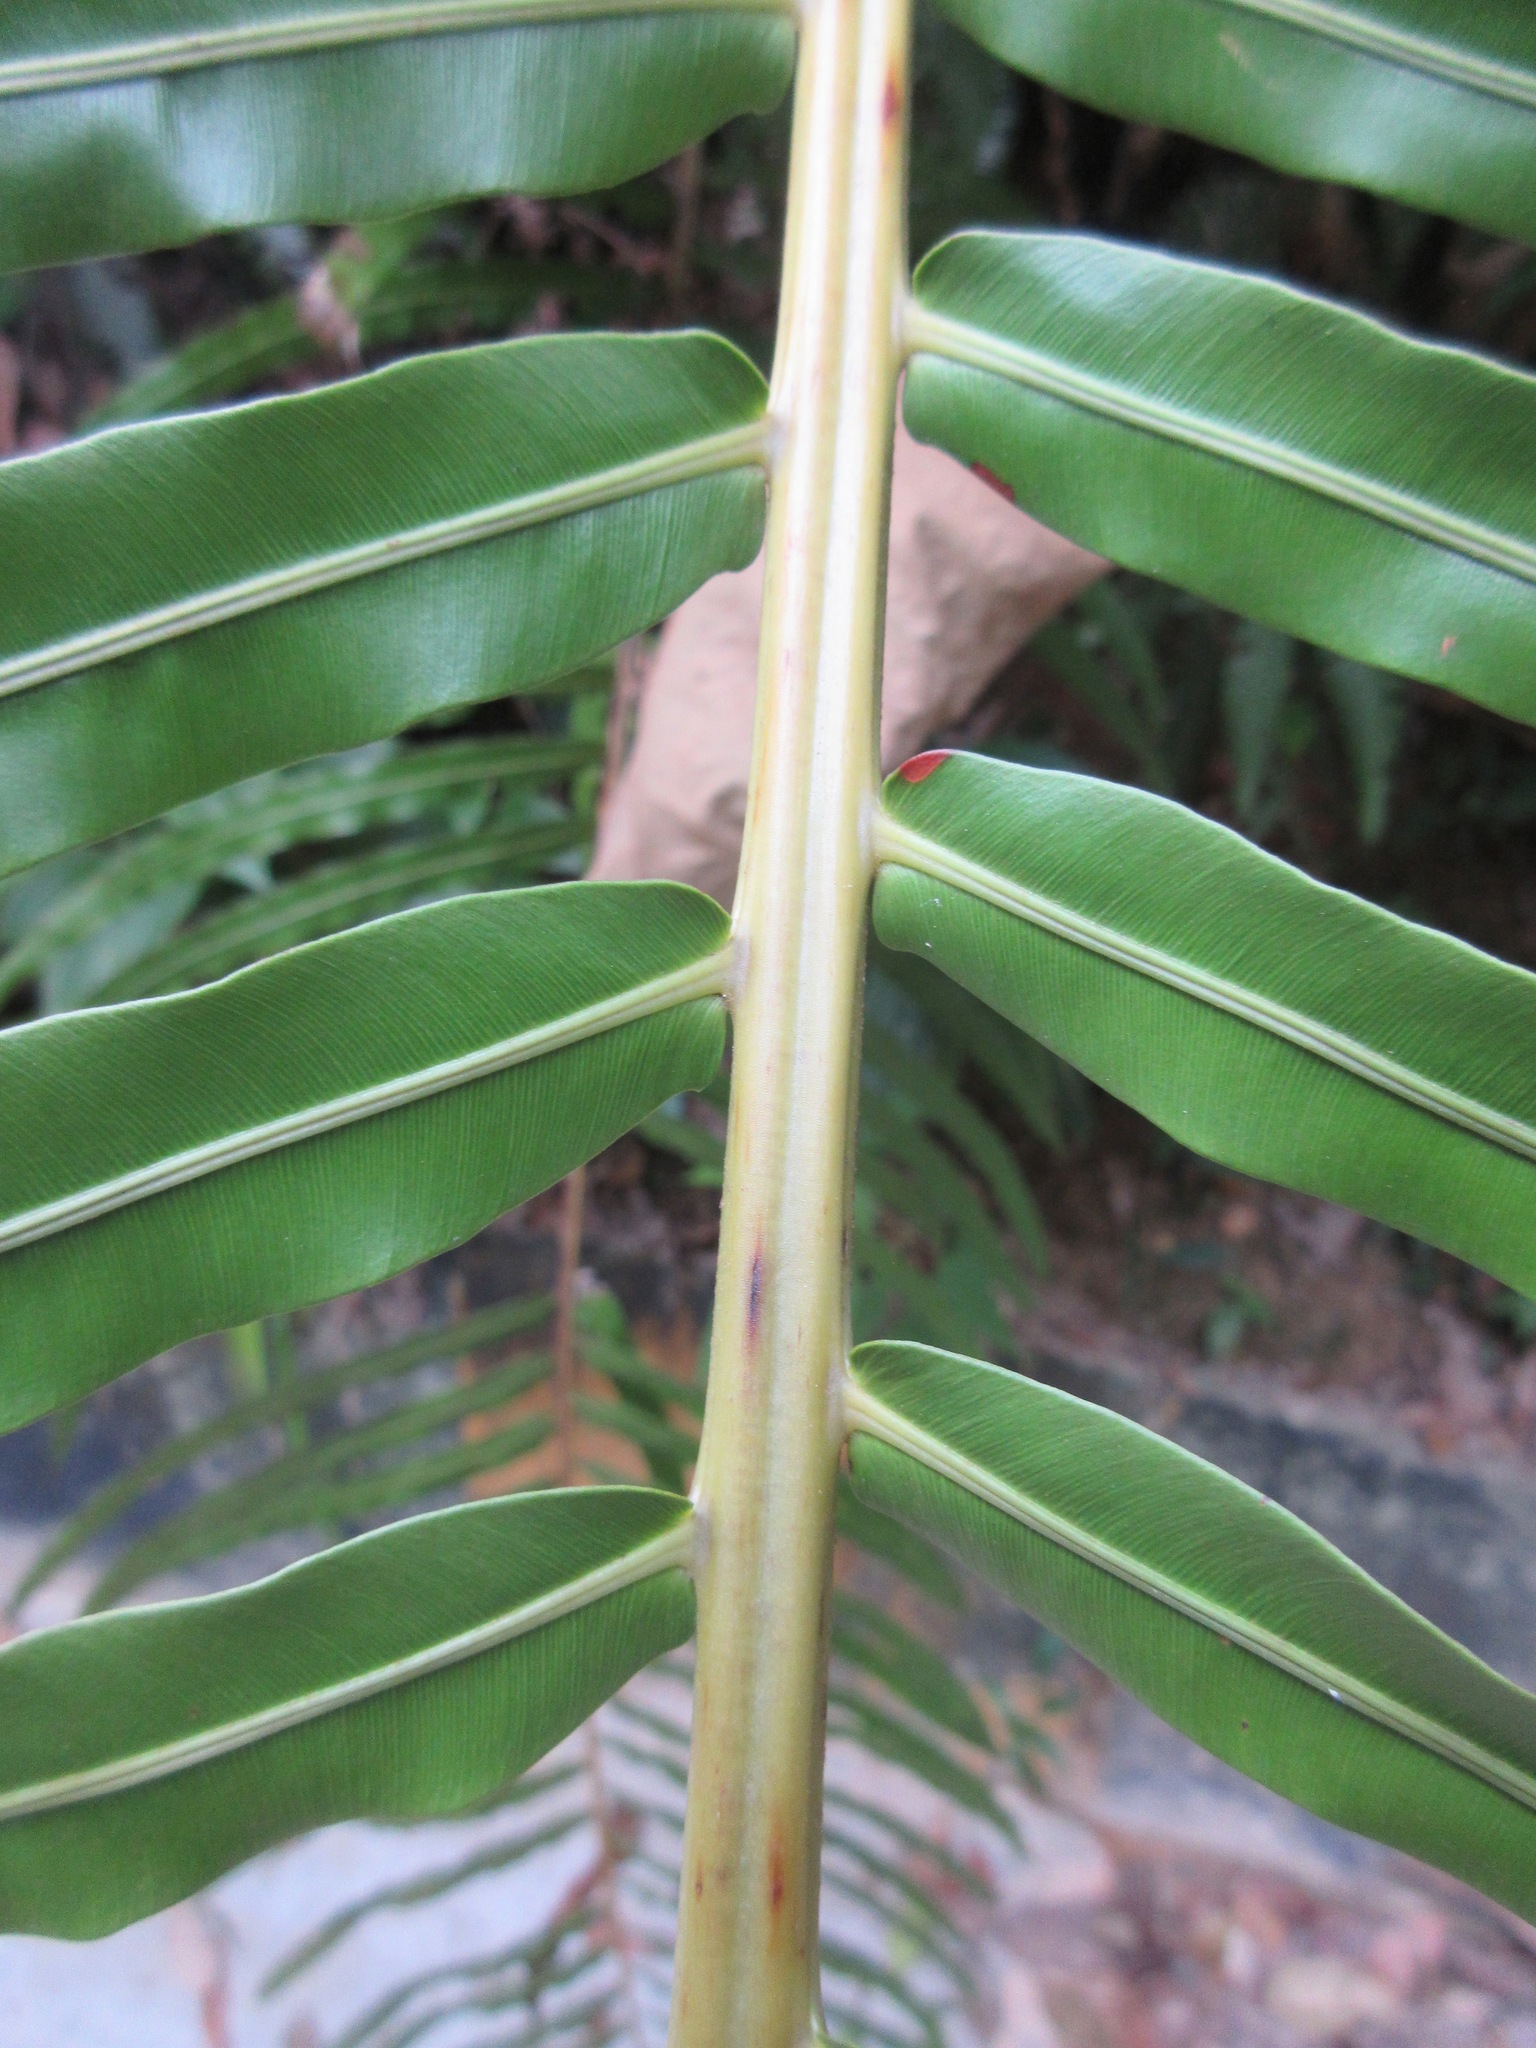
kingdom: Plantae
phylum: Tracheophyta
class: Polypodiopsida
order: Polypodiales
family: Blechnaceae
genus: Blechnopsis
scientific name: Blechnopsis orientalis
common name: Oriental blechnum
